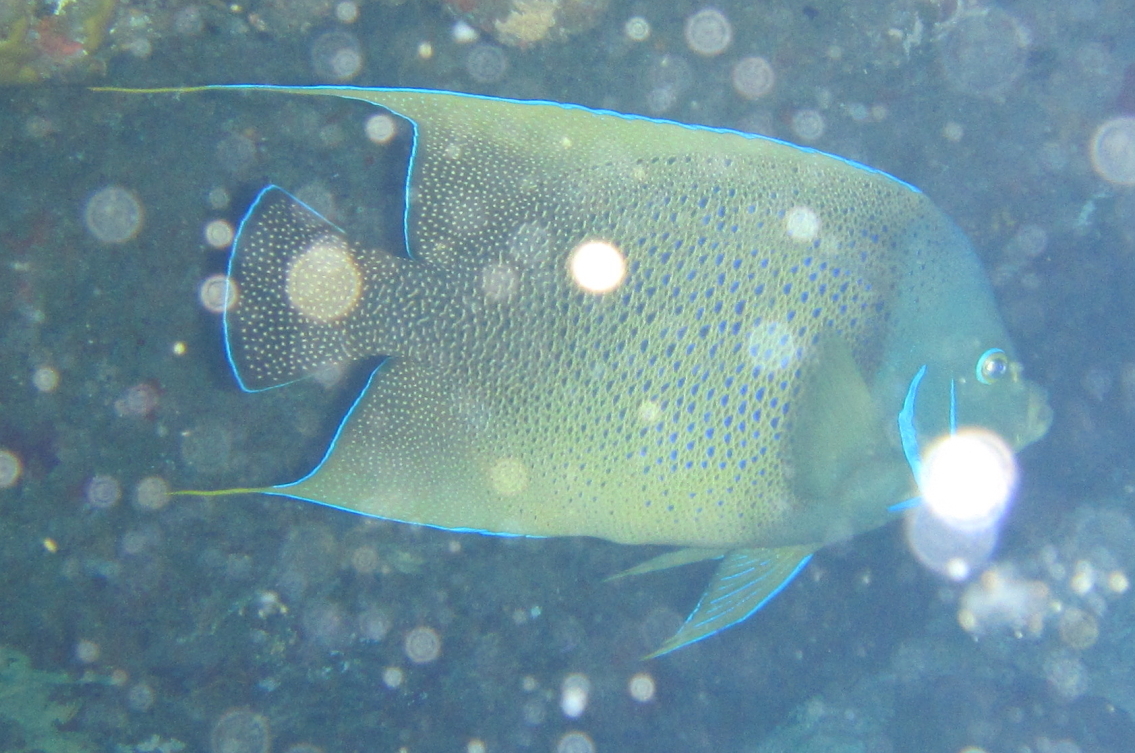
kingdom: Animalia
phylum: Chordata
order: Perciformes
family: Pomacanthidae
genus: Pomacanthus
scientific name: Pomacanthus semicirculatus
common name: Semicircle angelfish
